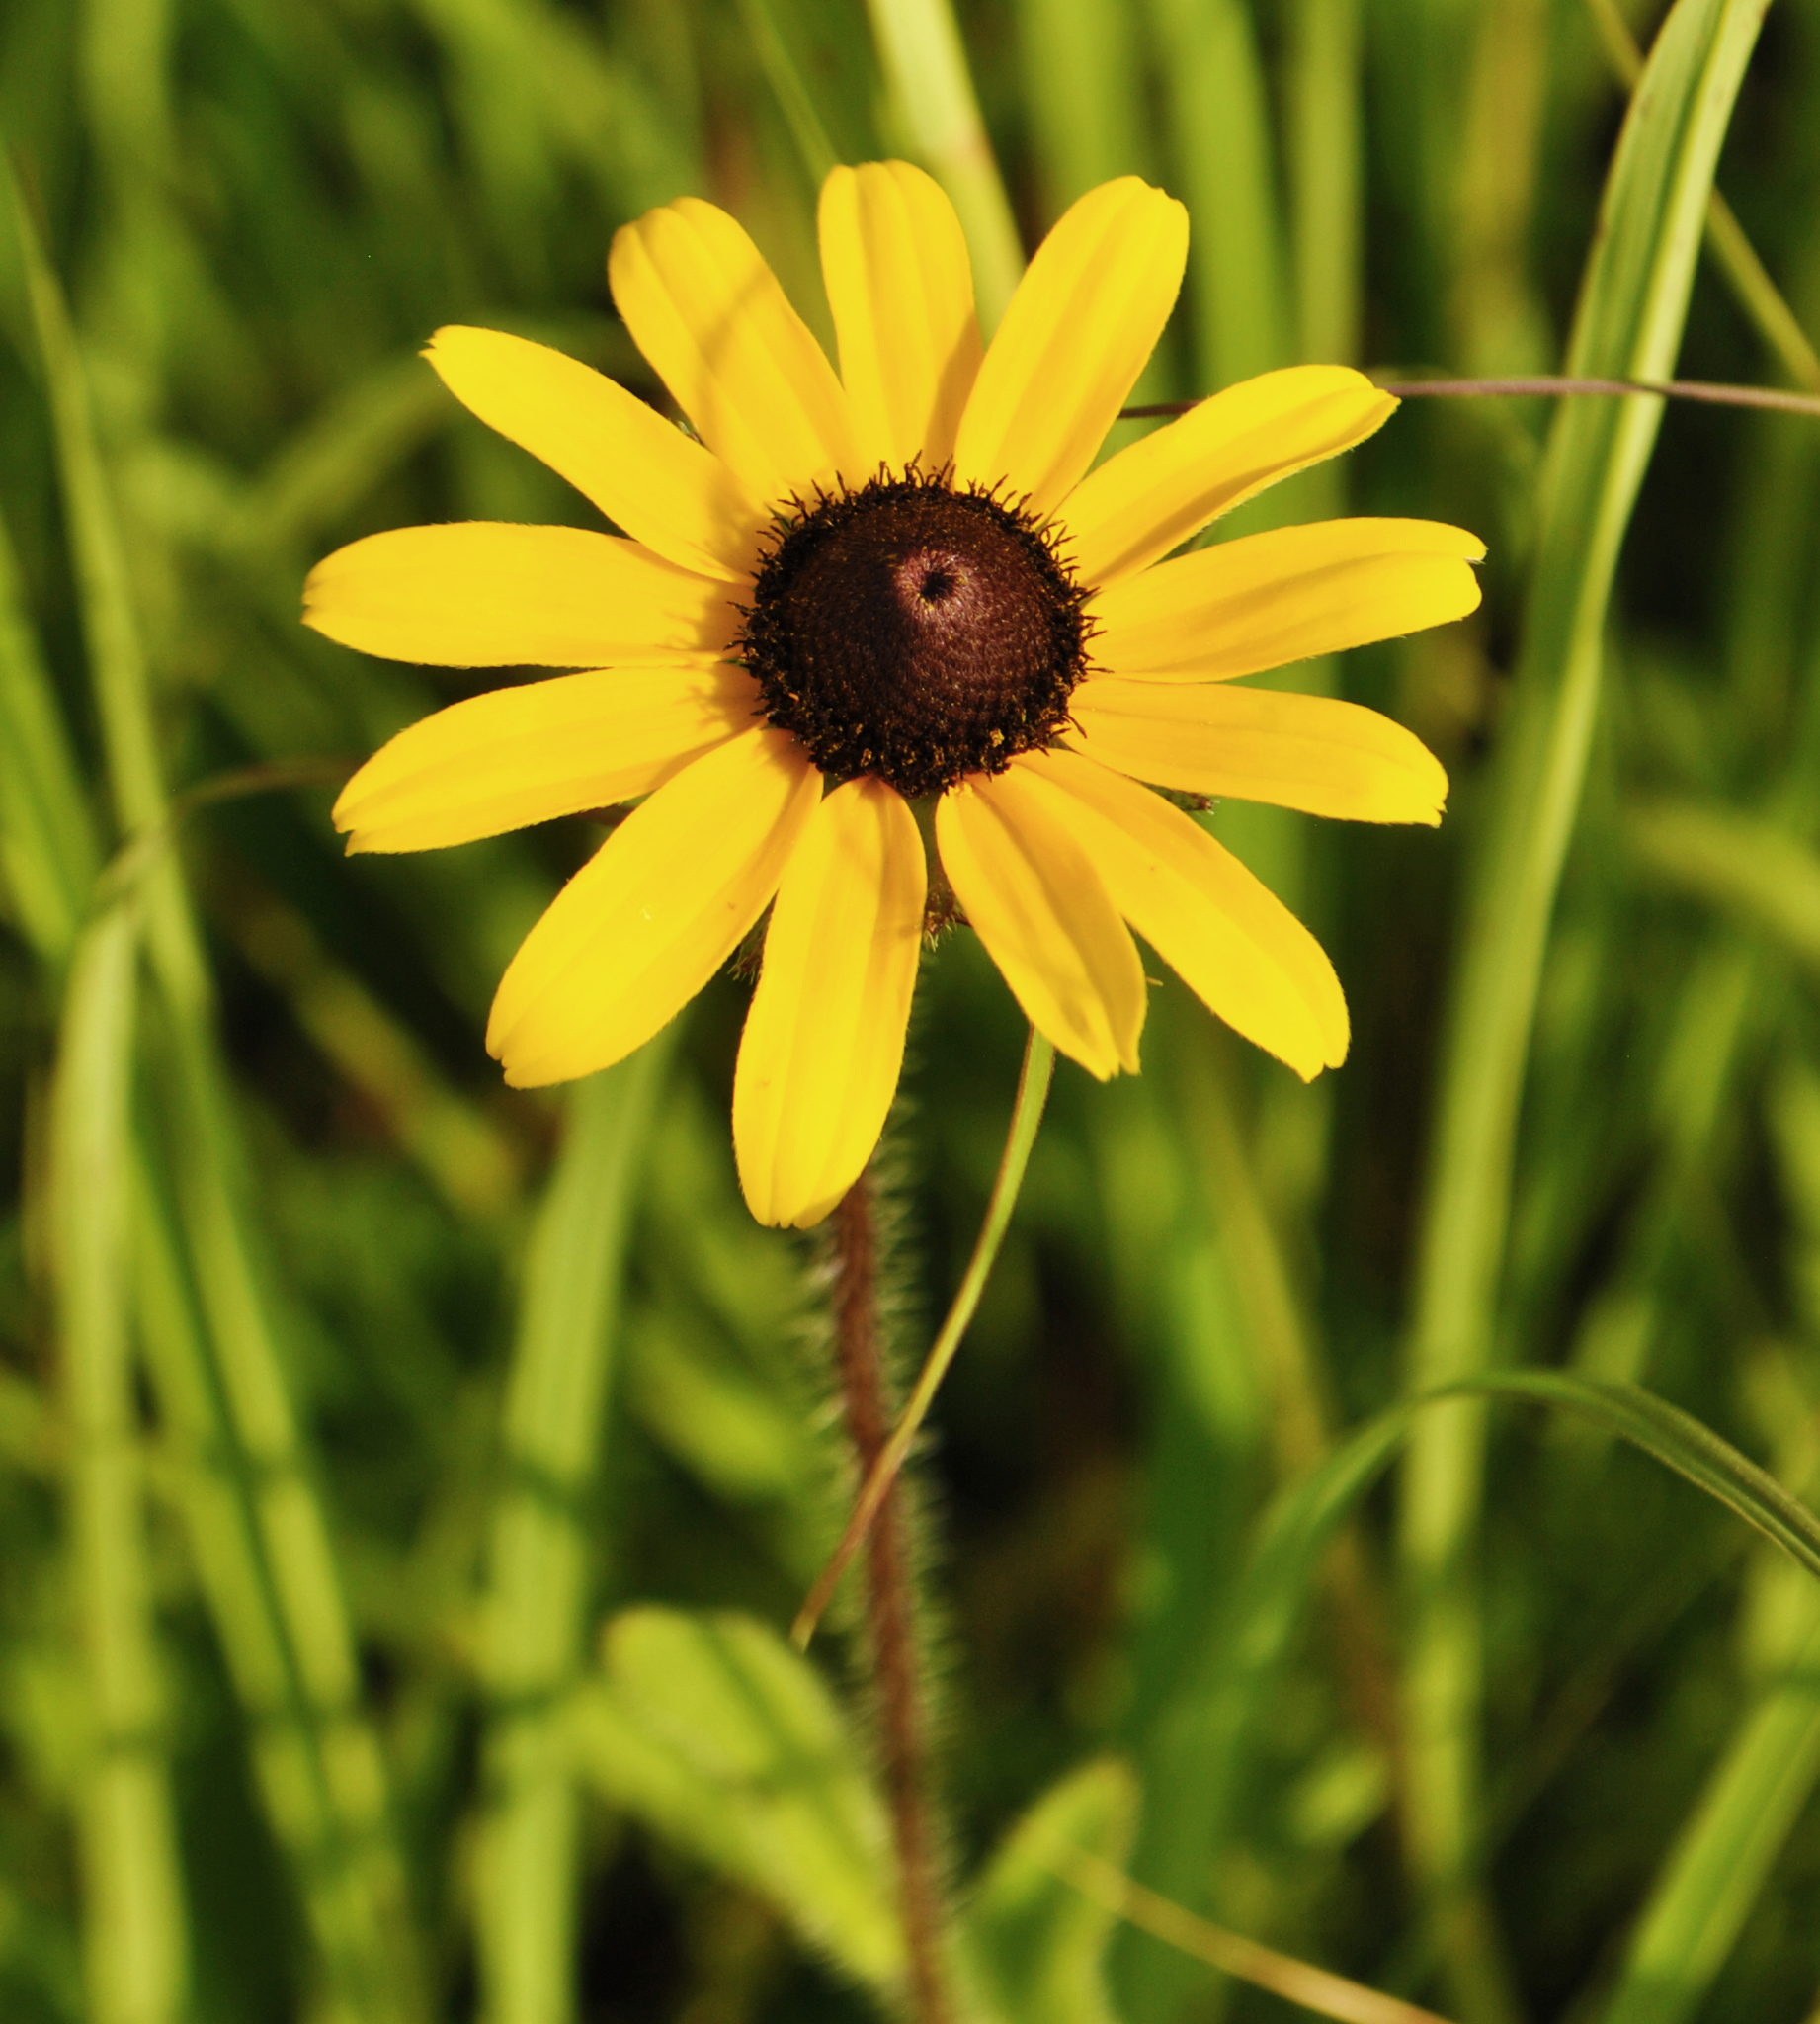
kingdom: Plantae
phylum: Tracheophyta
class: Magnoliopsida
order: Asterales
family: Asteraceae
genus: Rudbeckia
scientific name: Rudbeckia hirta
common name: Black-eyed-susan
